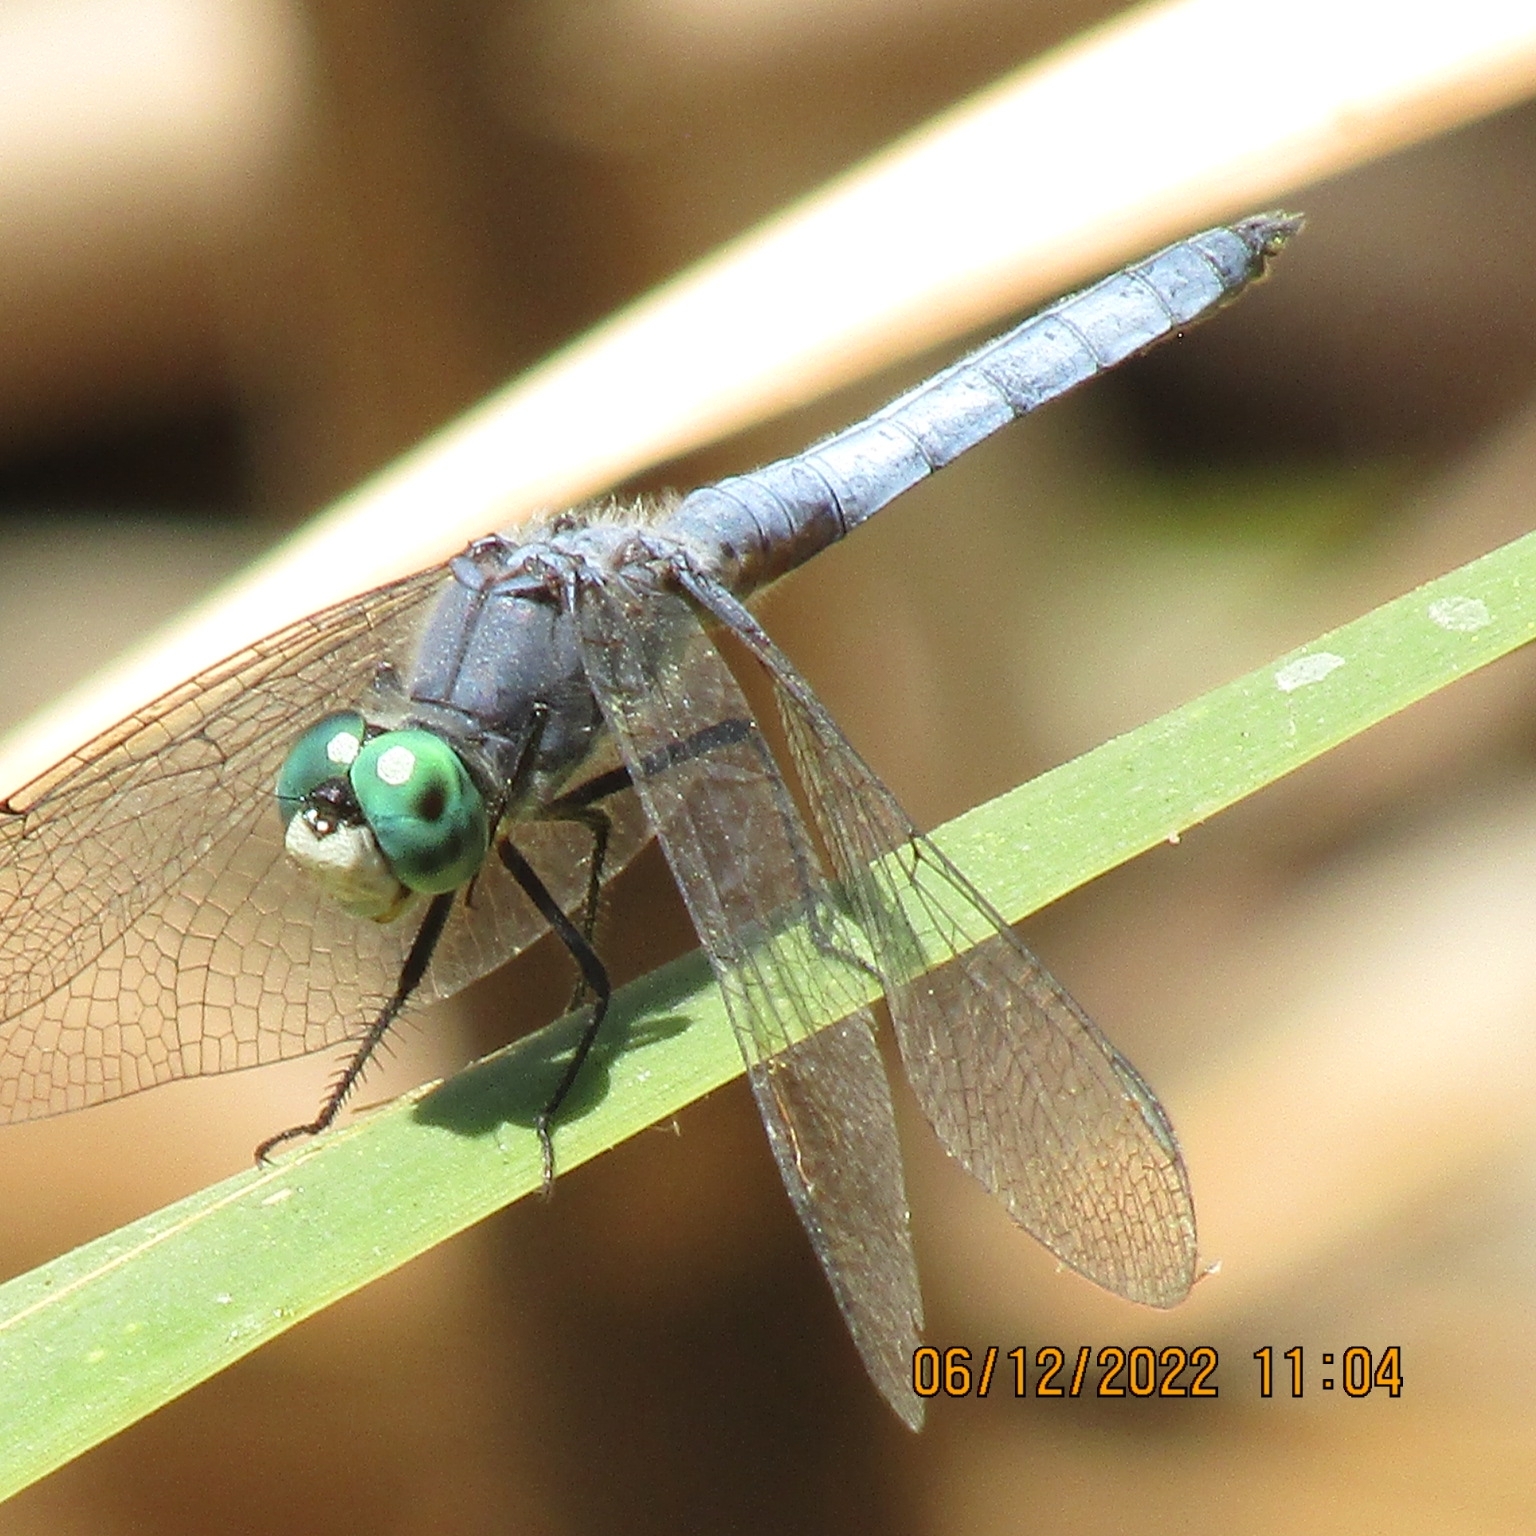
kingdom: Animalia
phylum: Arthropoda
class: Insecta
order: Odonata
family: Libellulidae
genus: Pachydiplax
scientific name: Pachydiplax longipennis
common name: Blue dasher
